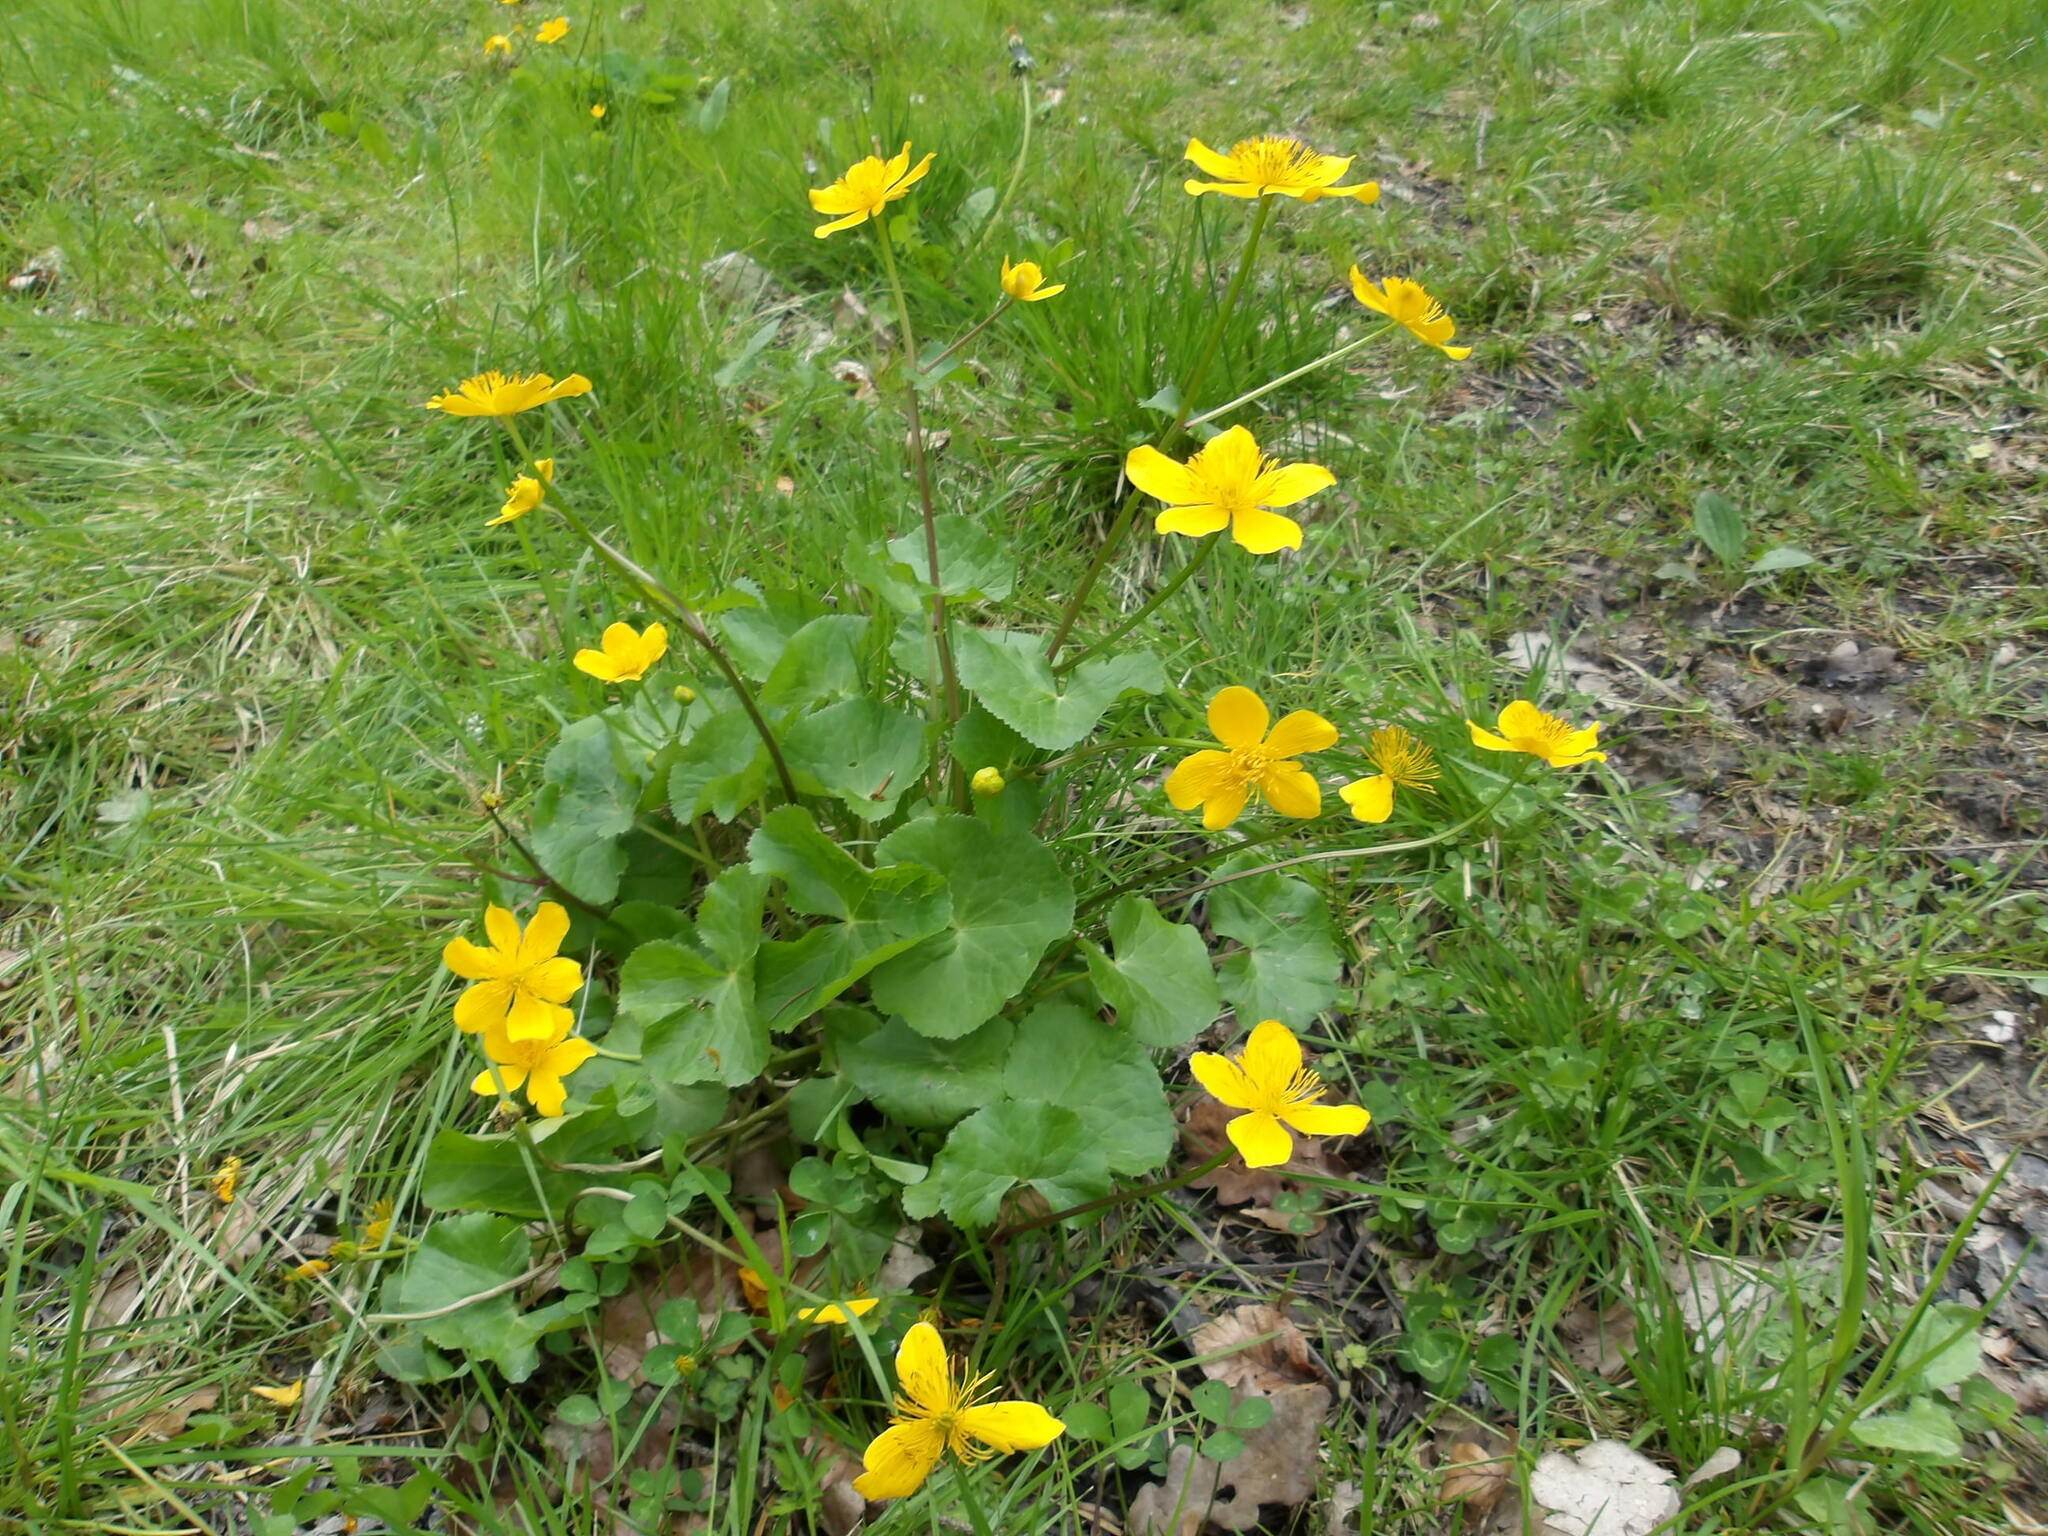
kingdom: Plantae
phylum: Tracheophyta
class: Magnoliopsida
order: Ranunculales
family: Ranunculaceae
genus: Caltha
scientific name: Caltha palustris
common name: Marsh marigold
